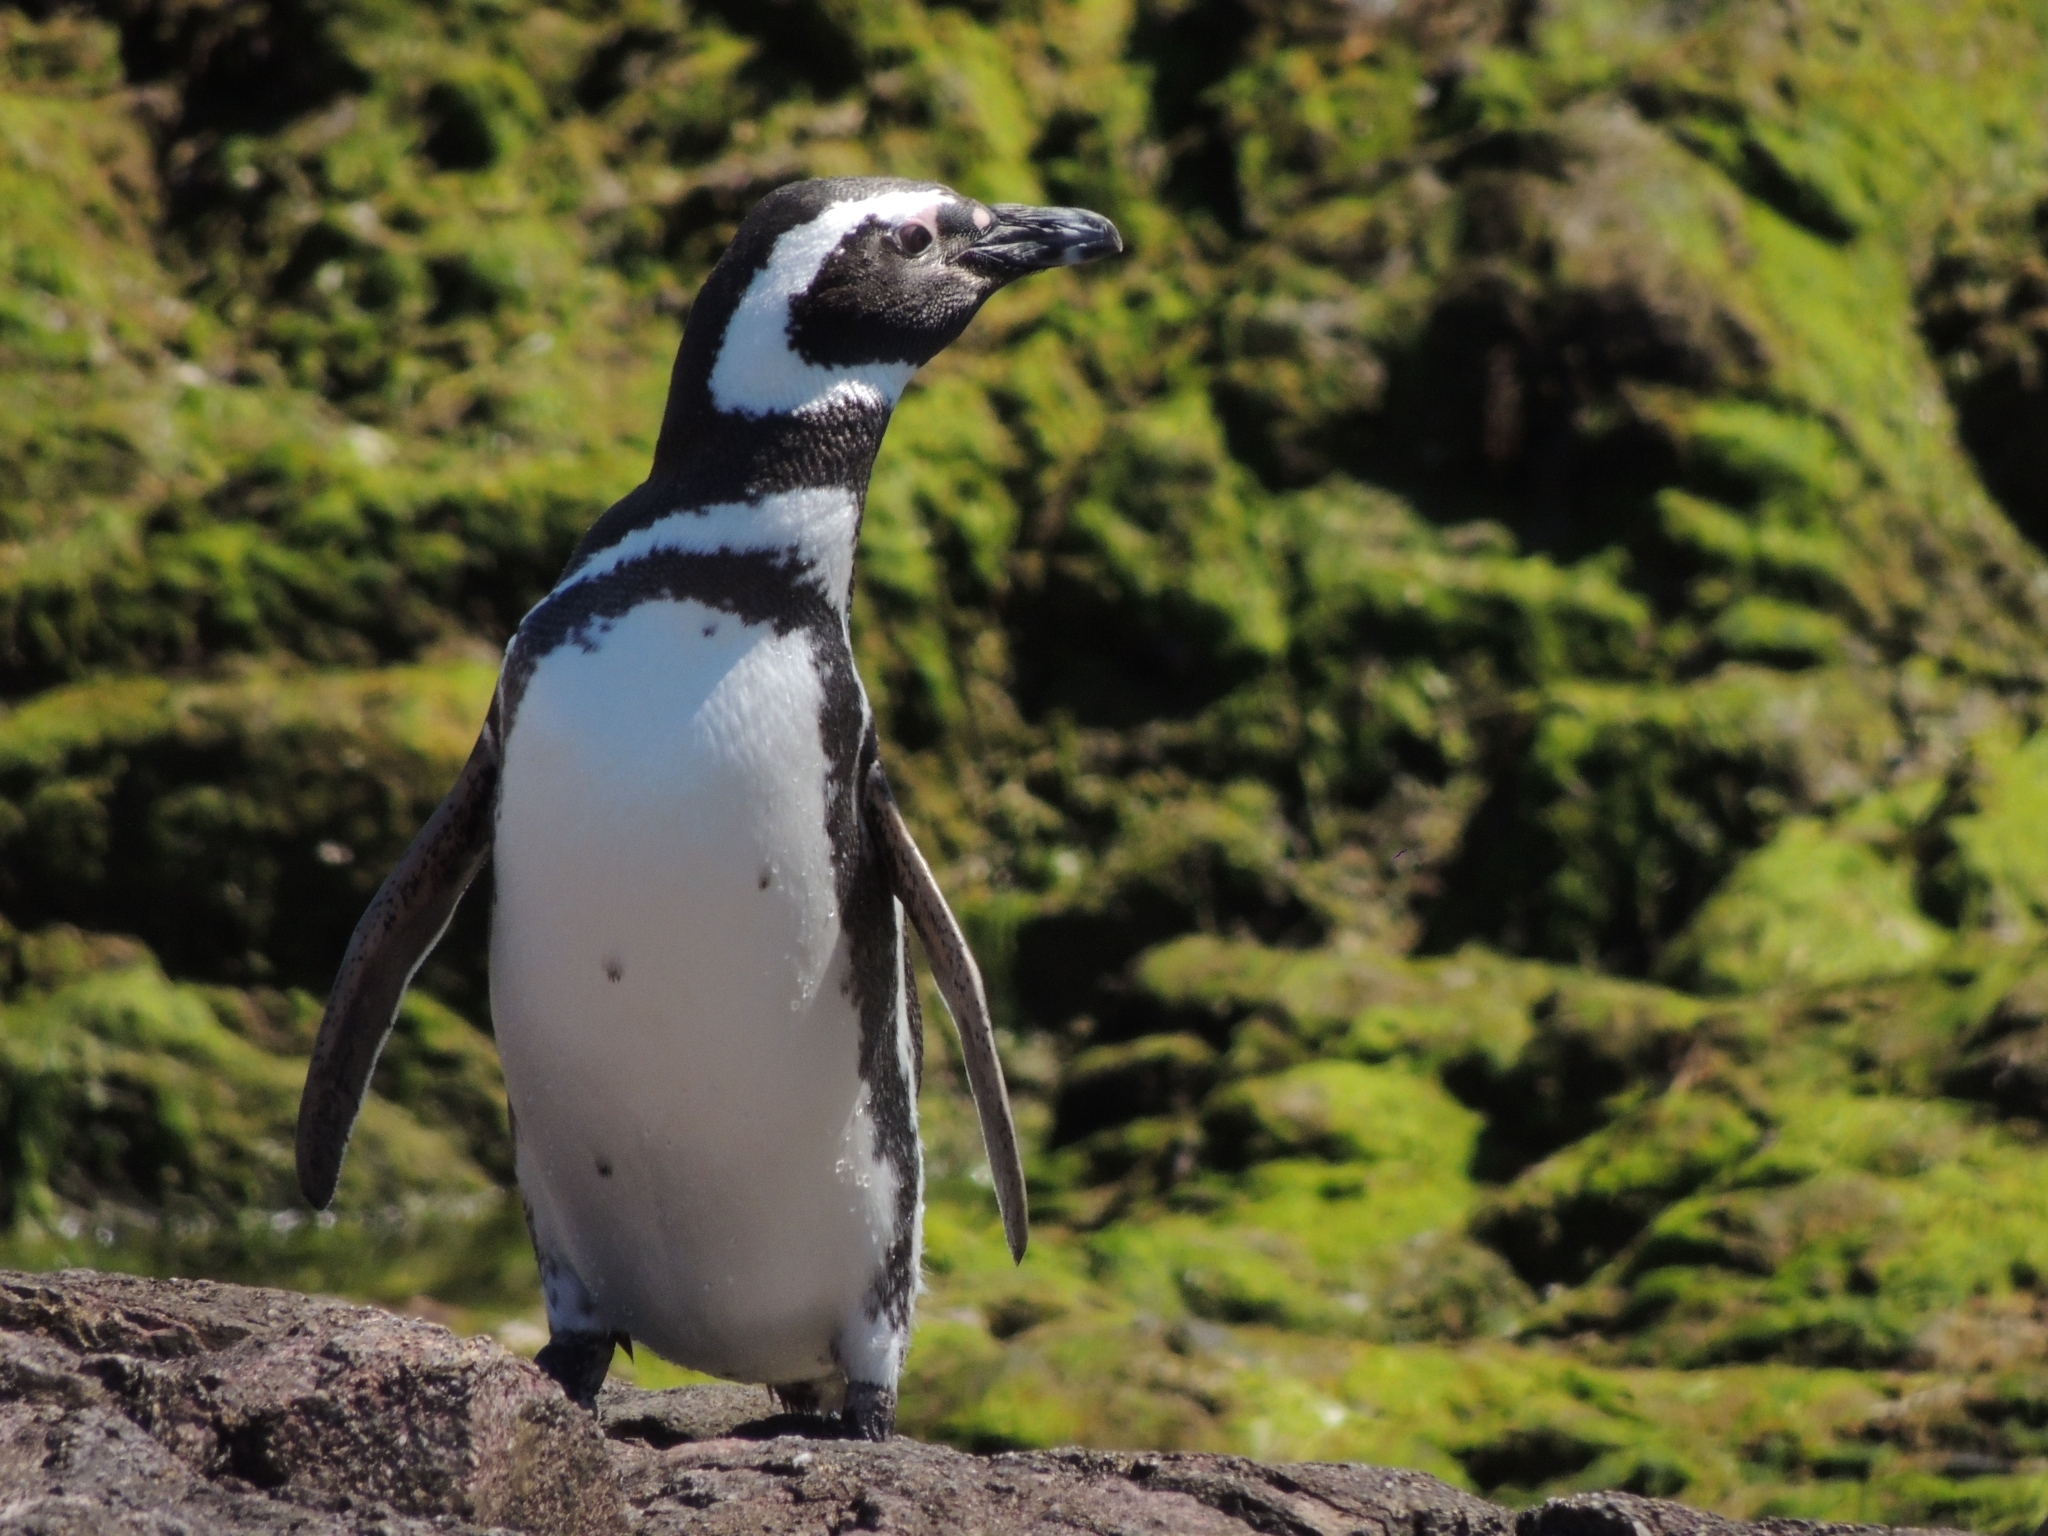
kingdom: Animalia
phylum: Chordata
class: Aves
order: Sphenisciformes
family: Spheniscidae
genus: Spheniscus
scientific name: Spheniscus magellanicus
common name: Magellanic penguin
